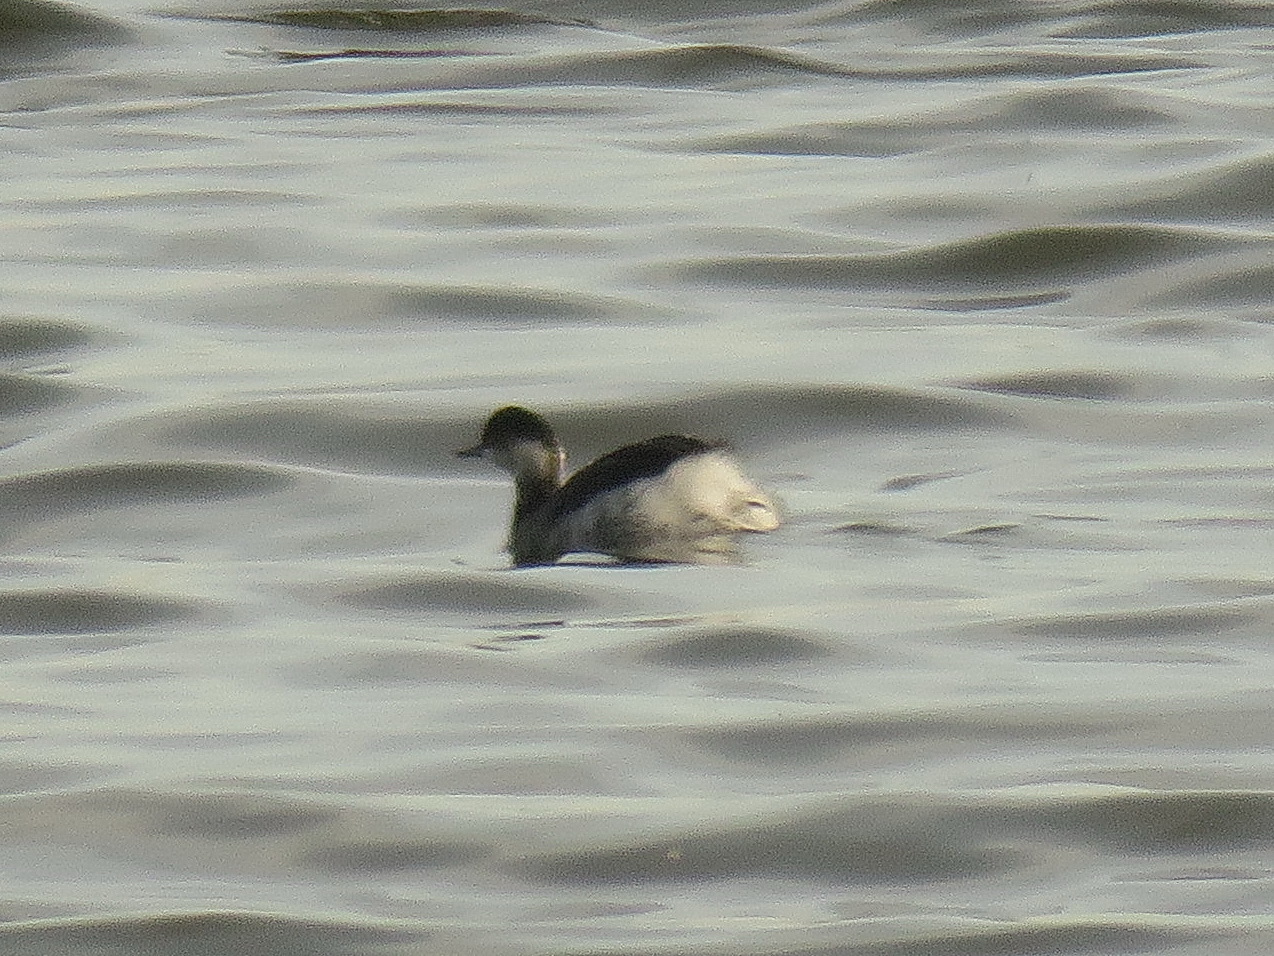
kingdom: Animalia
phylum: Chordata
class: Aves
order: Podicipediformes
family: Podicipedidae
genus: Podiceps
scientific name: Podiceps nigricollis
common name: Black-necked grebe
